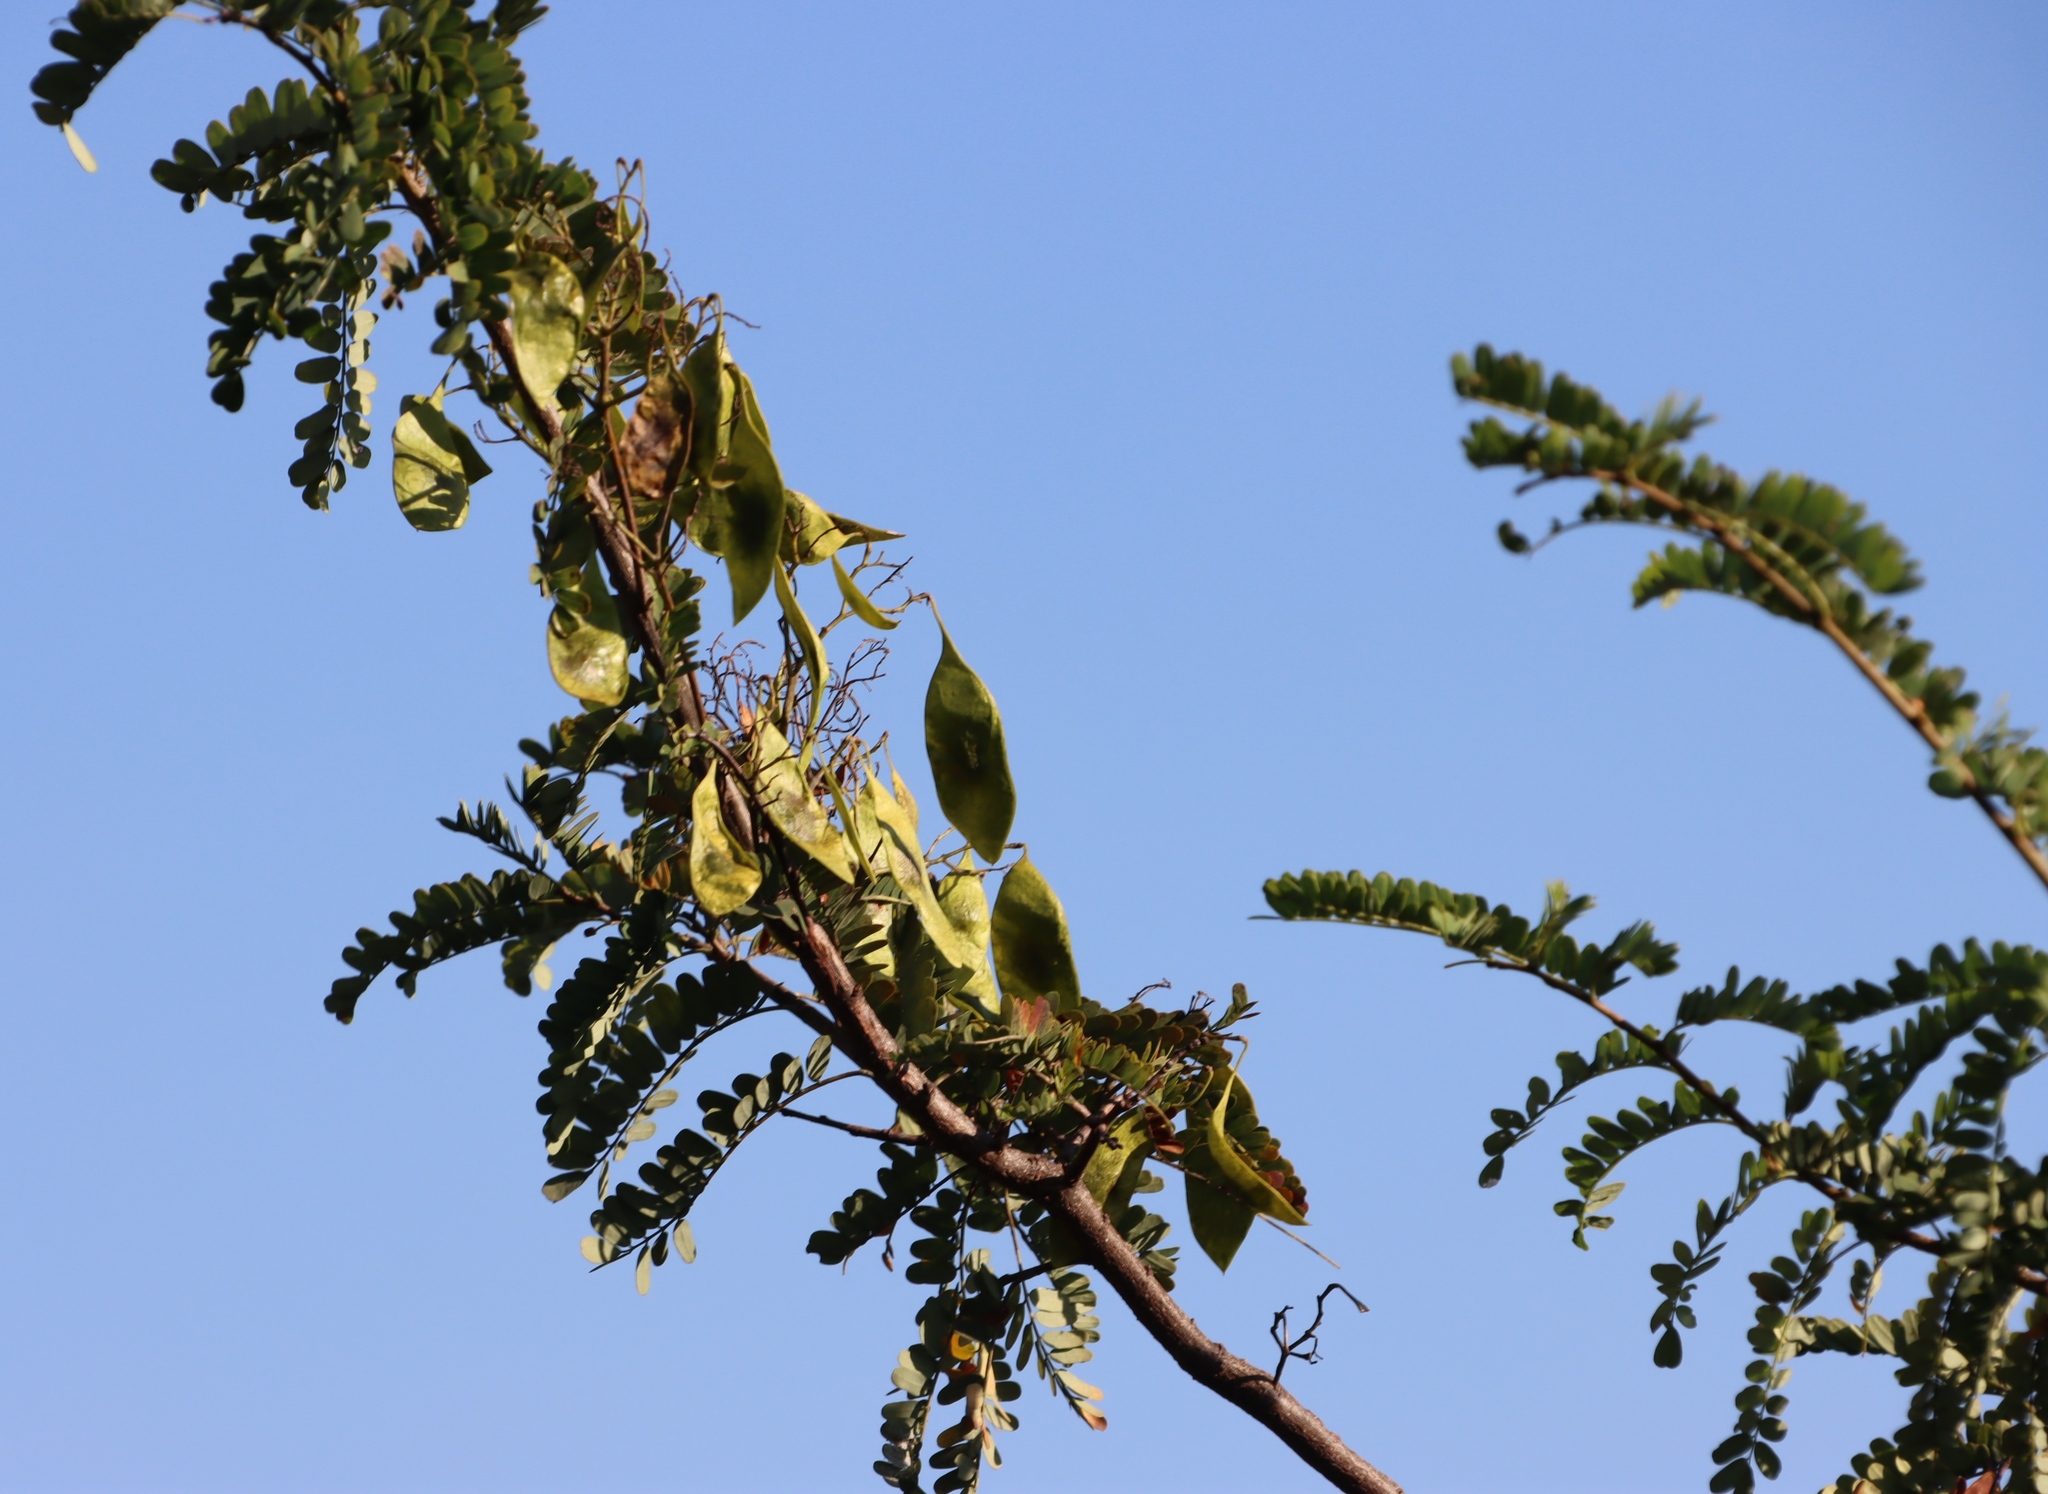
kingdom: Plantae
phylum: Tracheophyta
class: Magnoliopsida
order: Fabales
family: Fabaceae
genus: Dalbergia
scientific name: Dalbergia armata
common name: Hluhluwe climber
